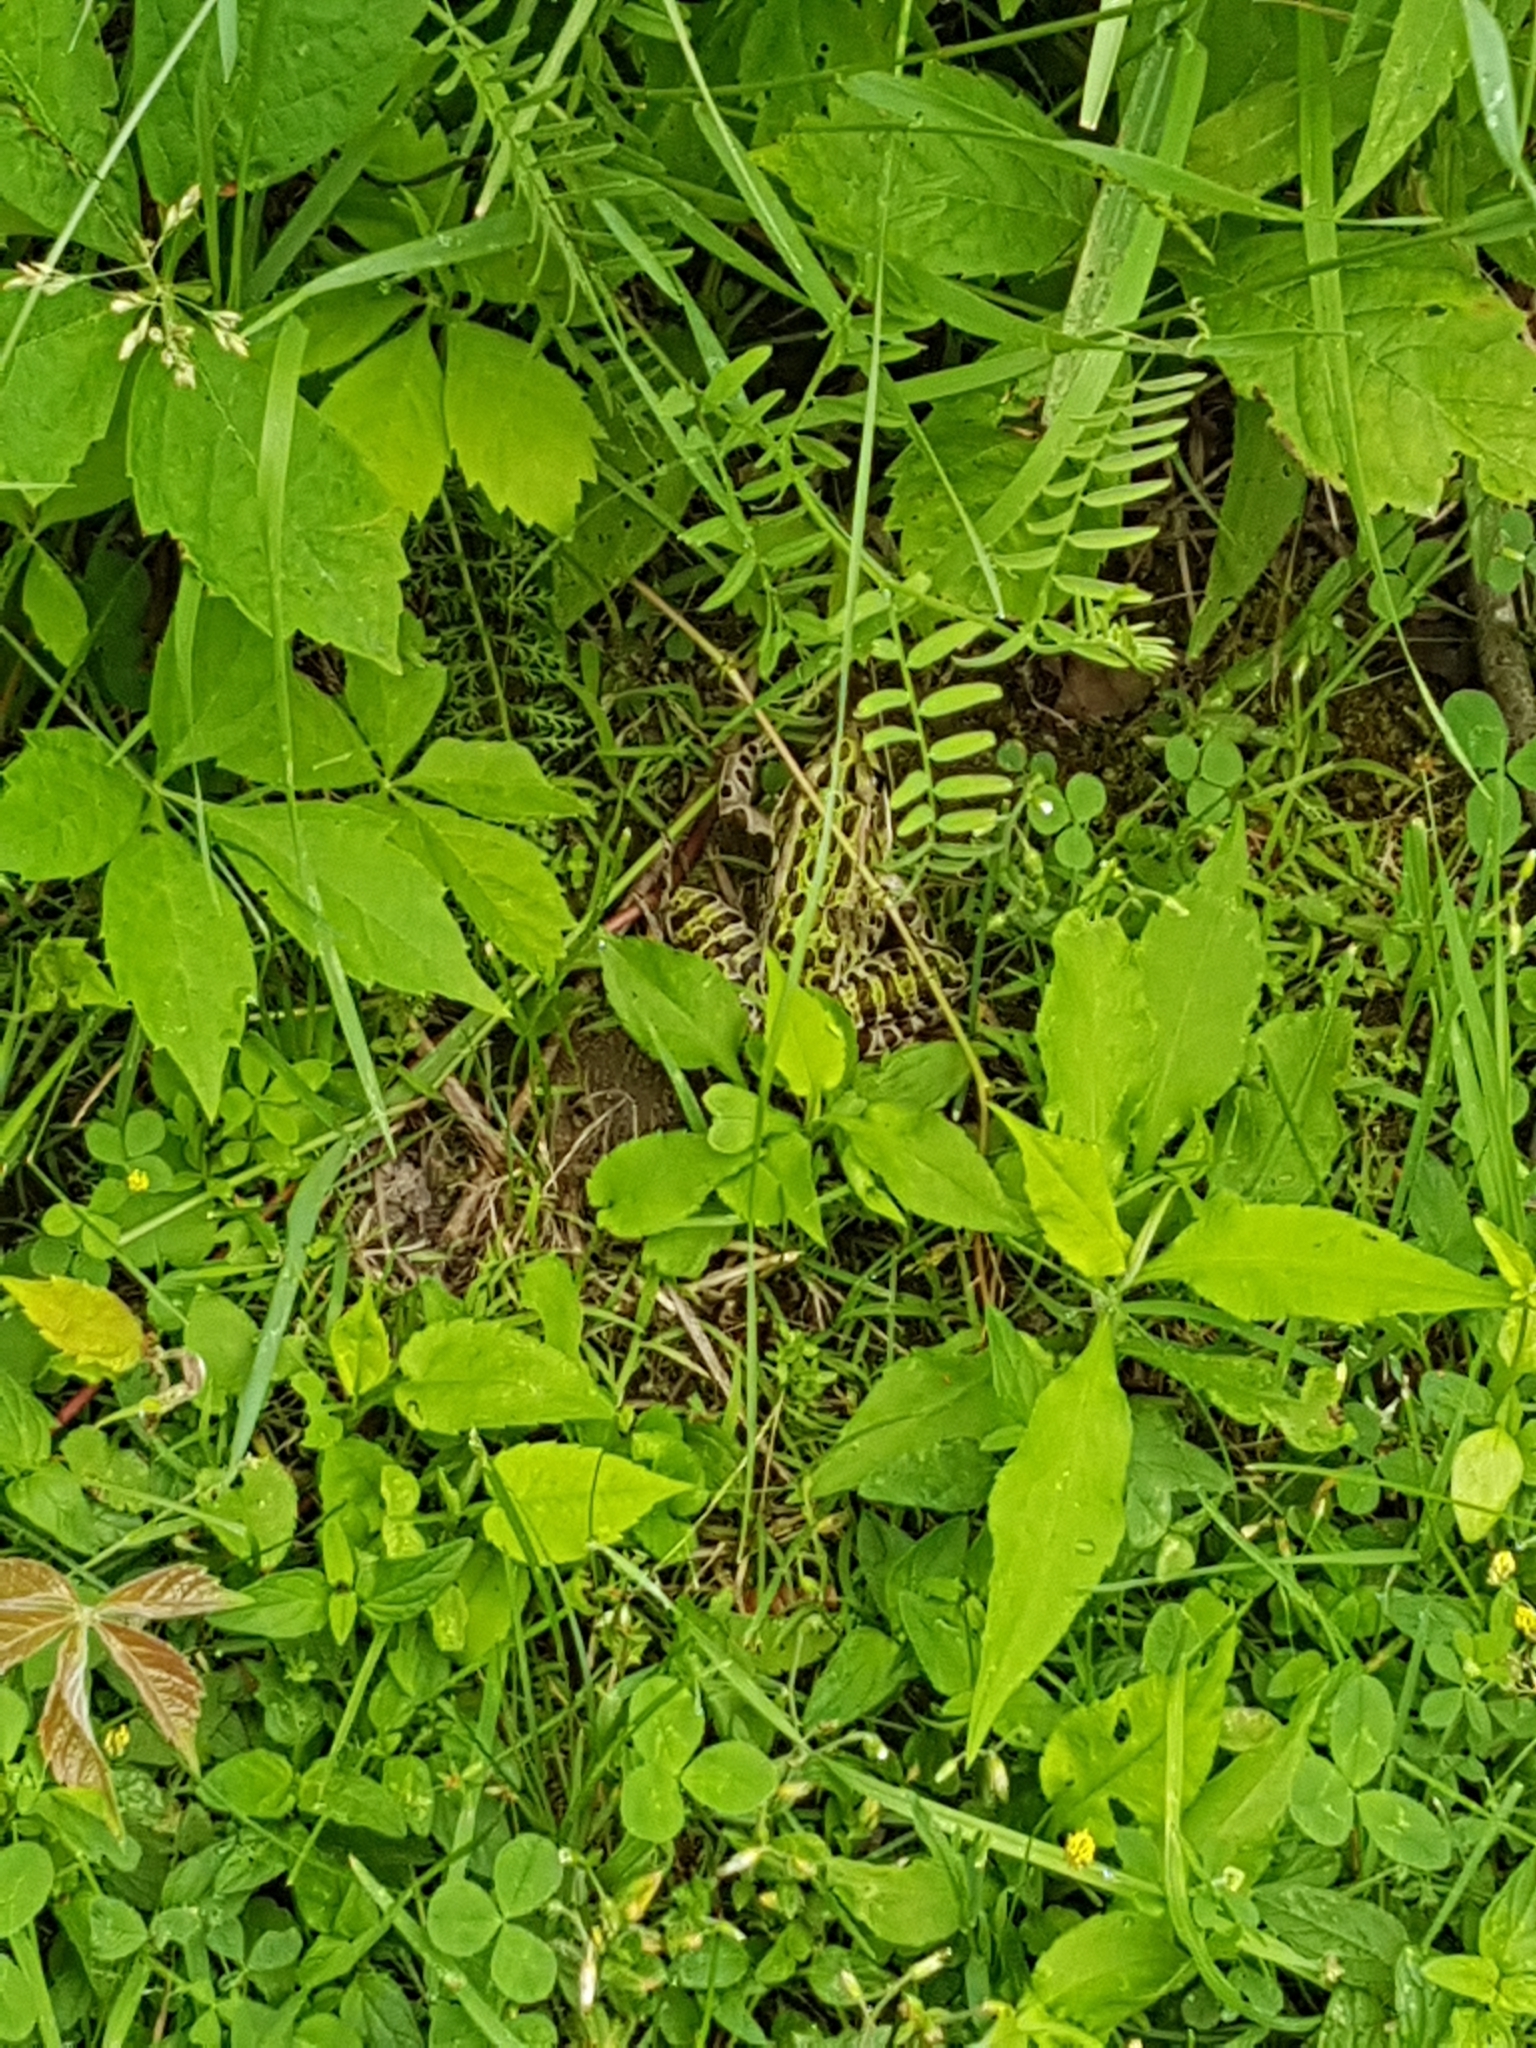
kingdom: Animalia
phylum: Chordata
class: Amphibia
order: Anura
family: Ranidae
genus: Lithobates
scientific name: Lithobates pipiens
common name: Northern leopard frog
